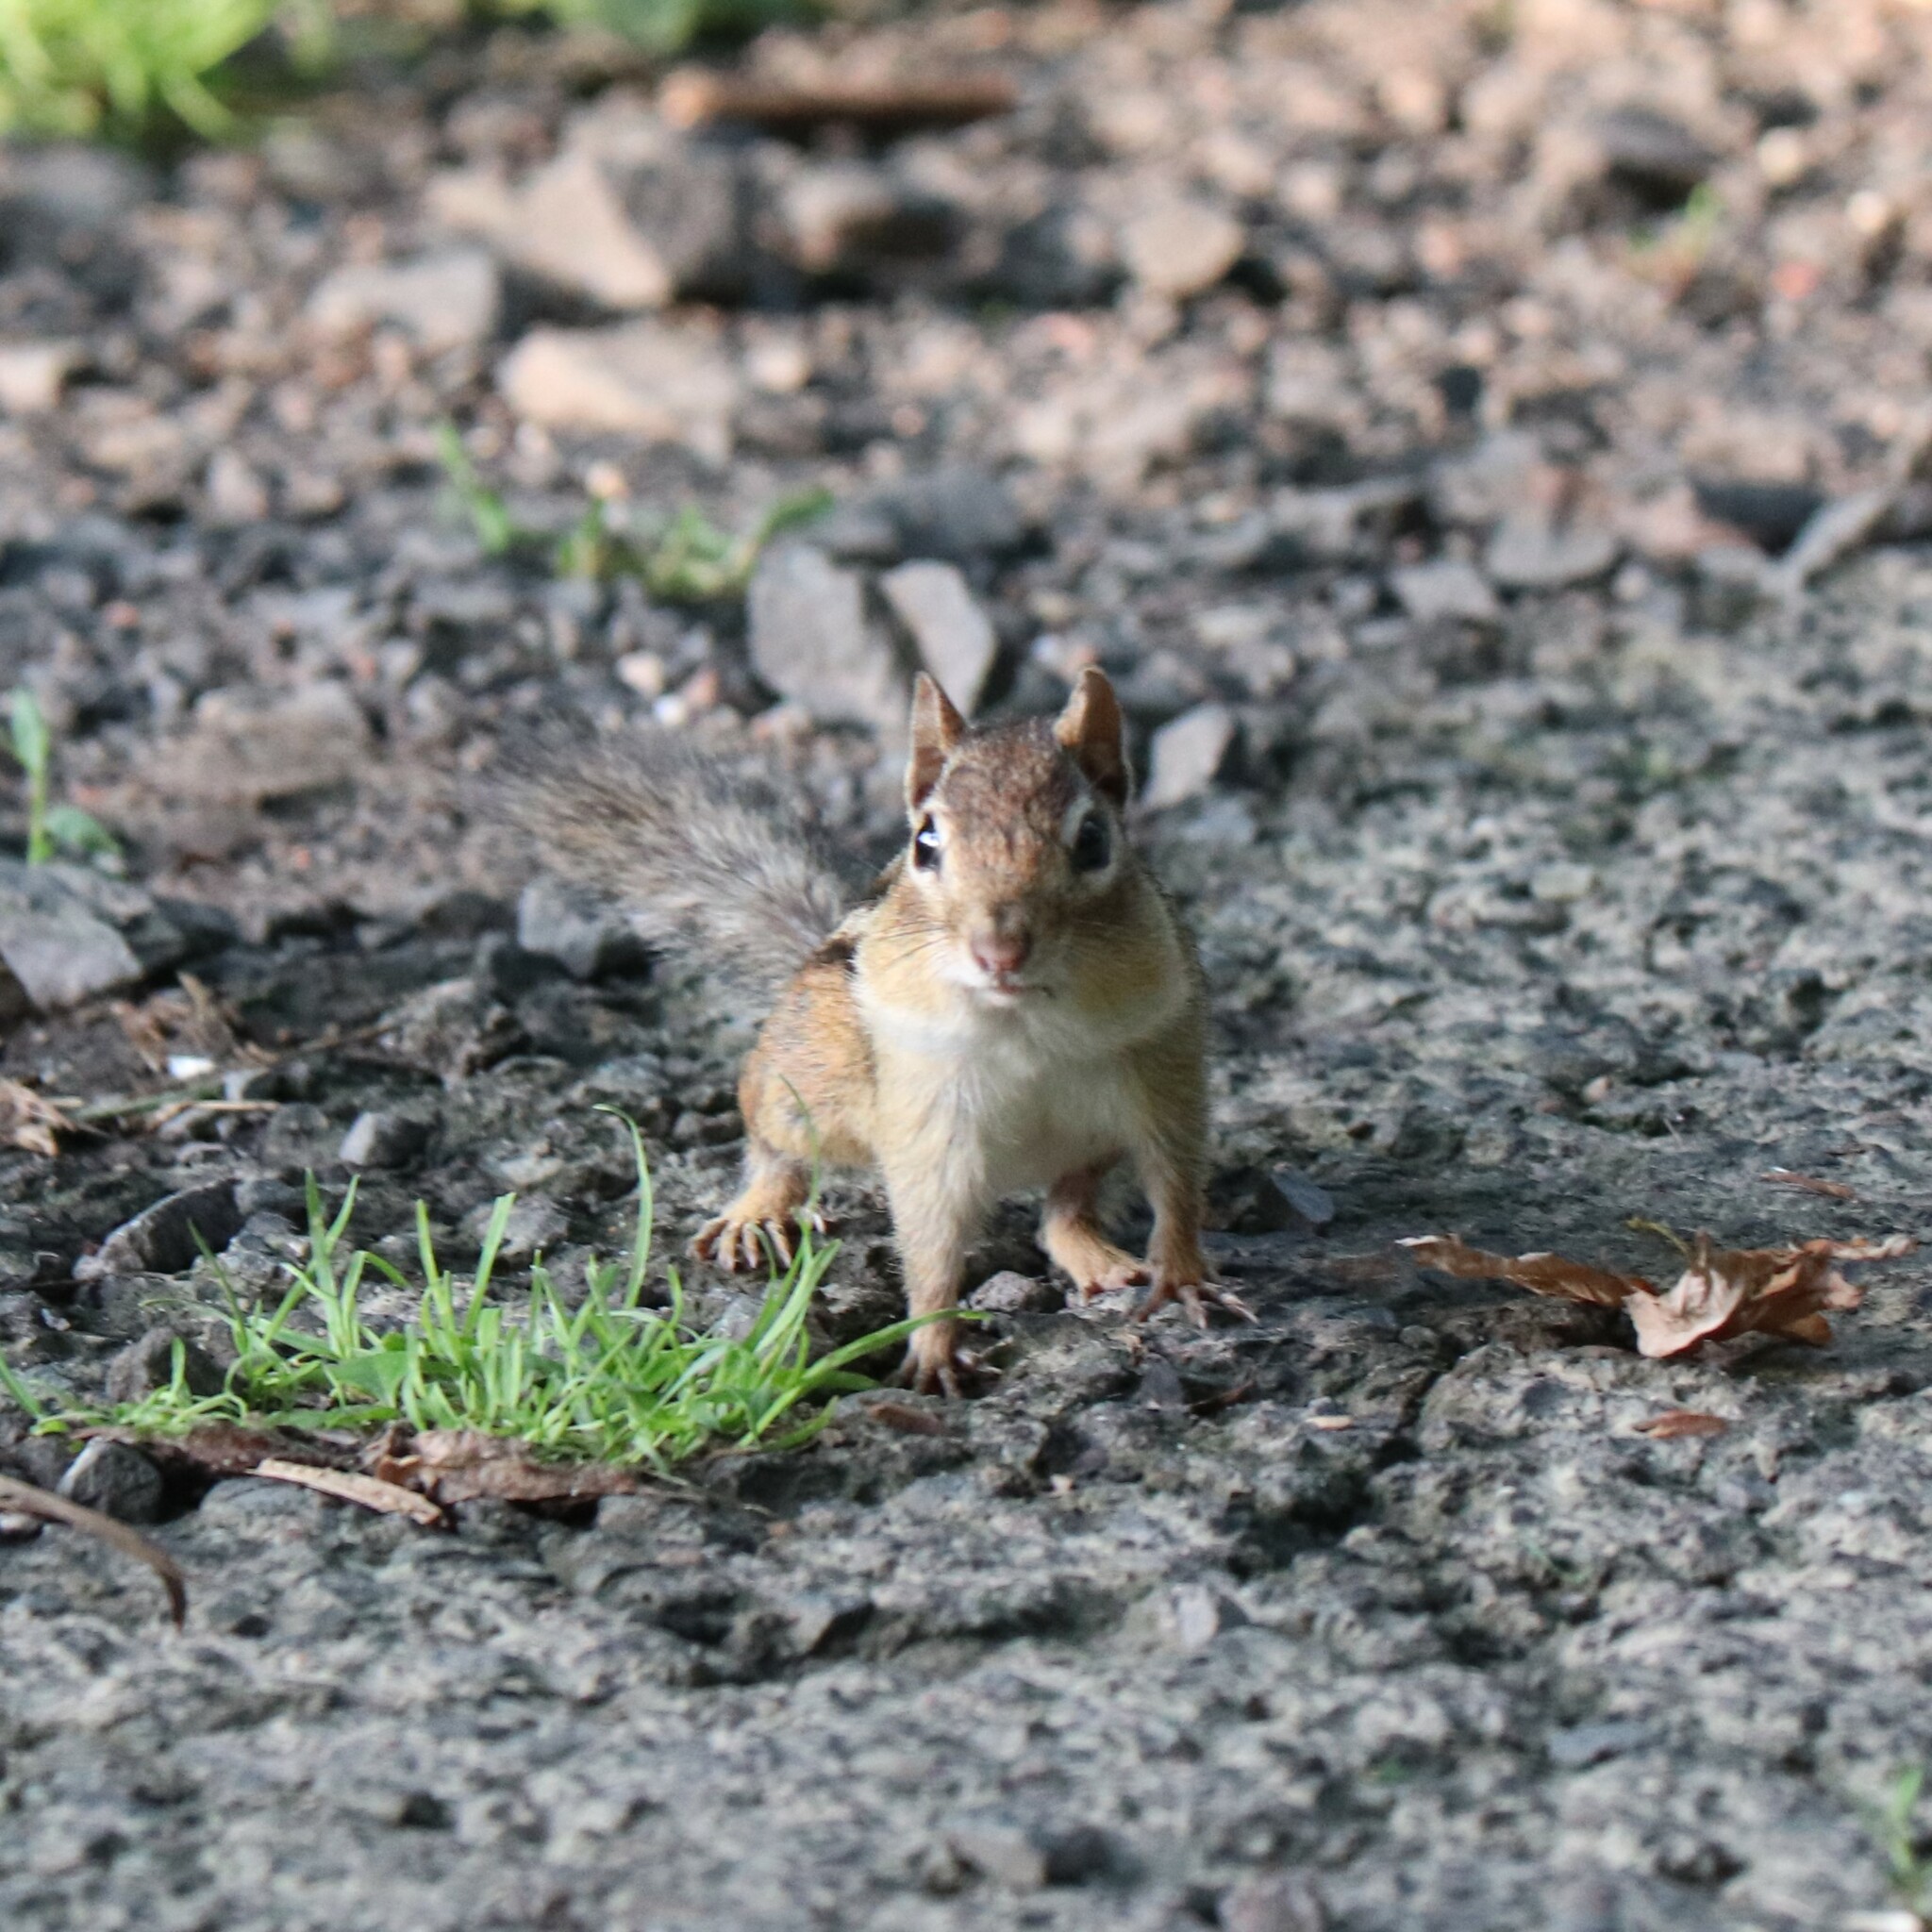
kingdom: Animalia
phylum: Chordata
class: Mammalia
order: Rodentia
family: Sciuridae
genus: Tamias
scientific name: Tamias striatus
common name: Eastern chipmunk
